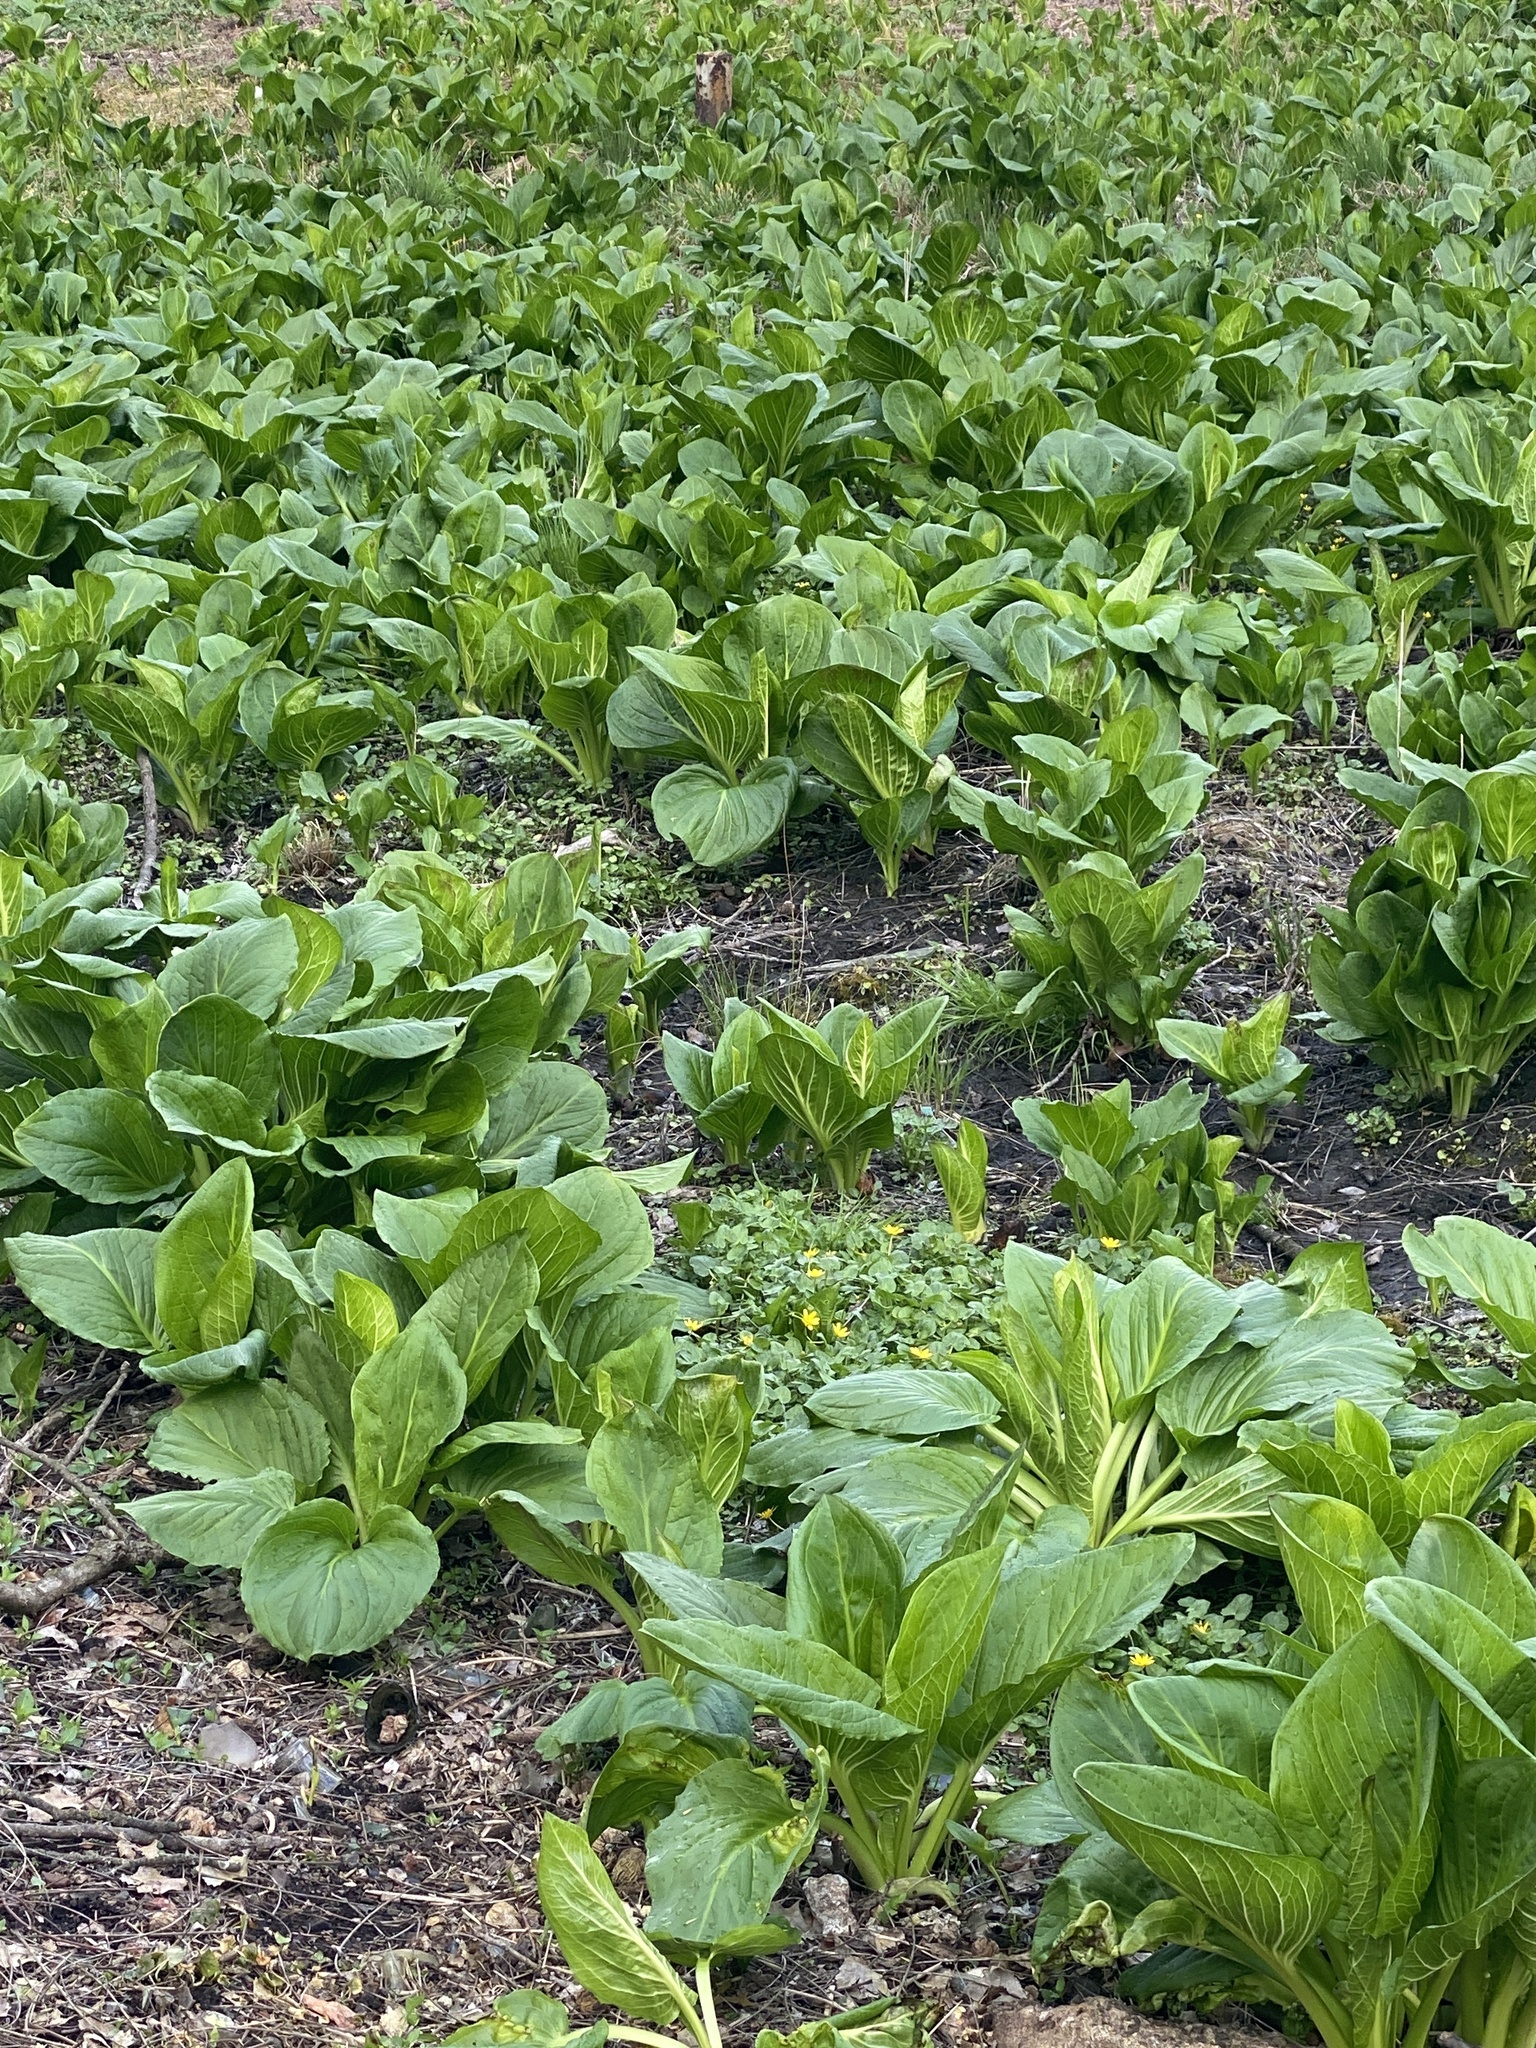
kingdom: Plantae
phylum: Tracheophyta
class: Liliopsida
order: Alismatales
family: Araceae
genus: Symplocarpus
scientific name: Symplocarpus foetidus
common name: Eastern skunk cabbage
